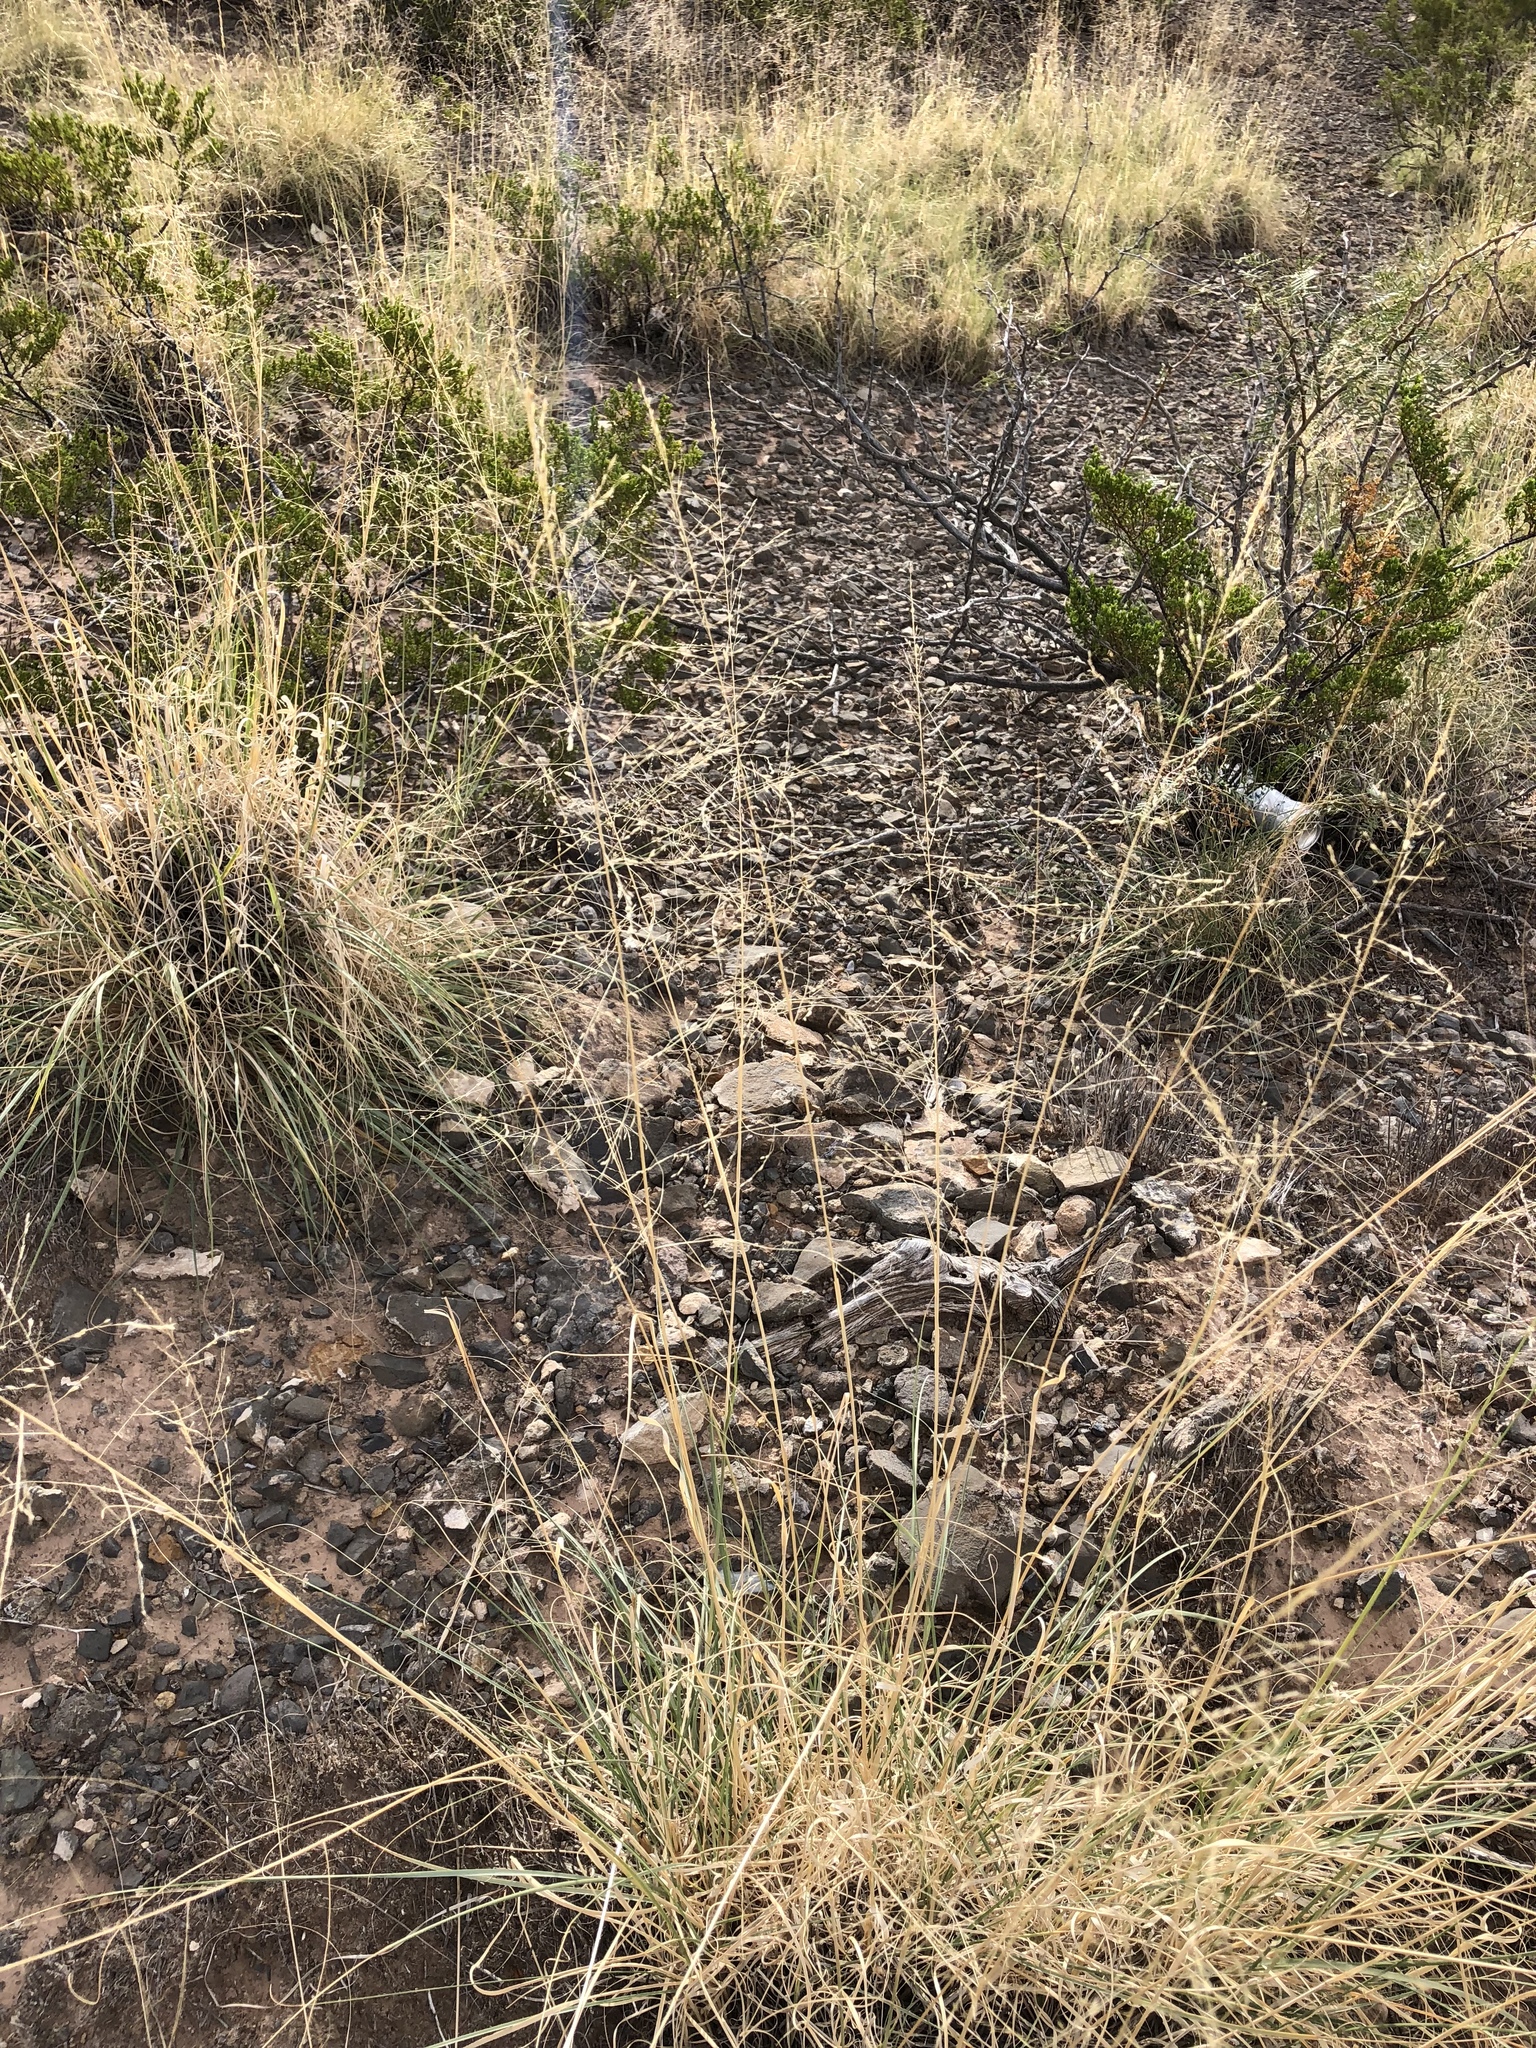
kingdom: Plantae
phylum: Tracheophyta
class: Liliopsida
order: Poales
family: Poaceae
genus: Eriocoma
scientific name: Eriocoma hymenoides
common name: Indian mountain ricegrass
